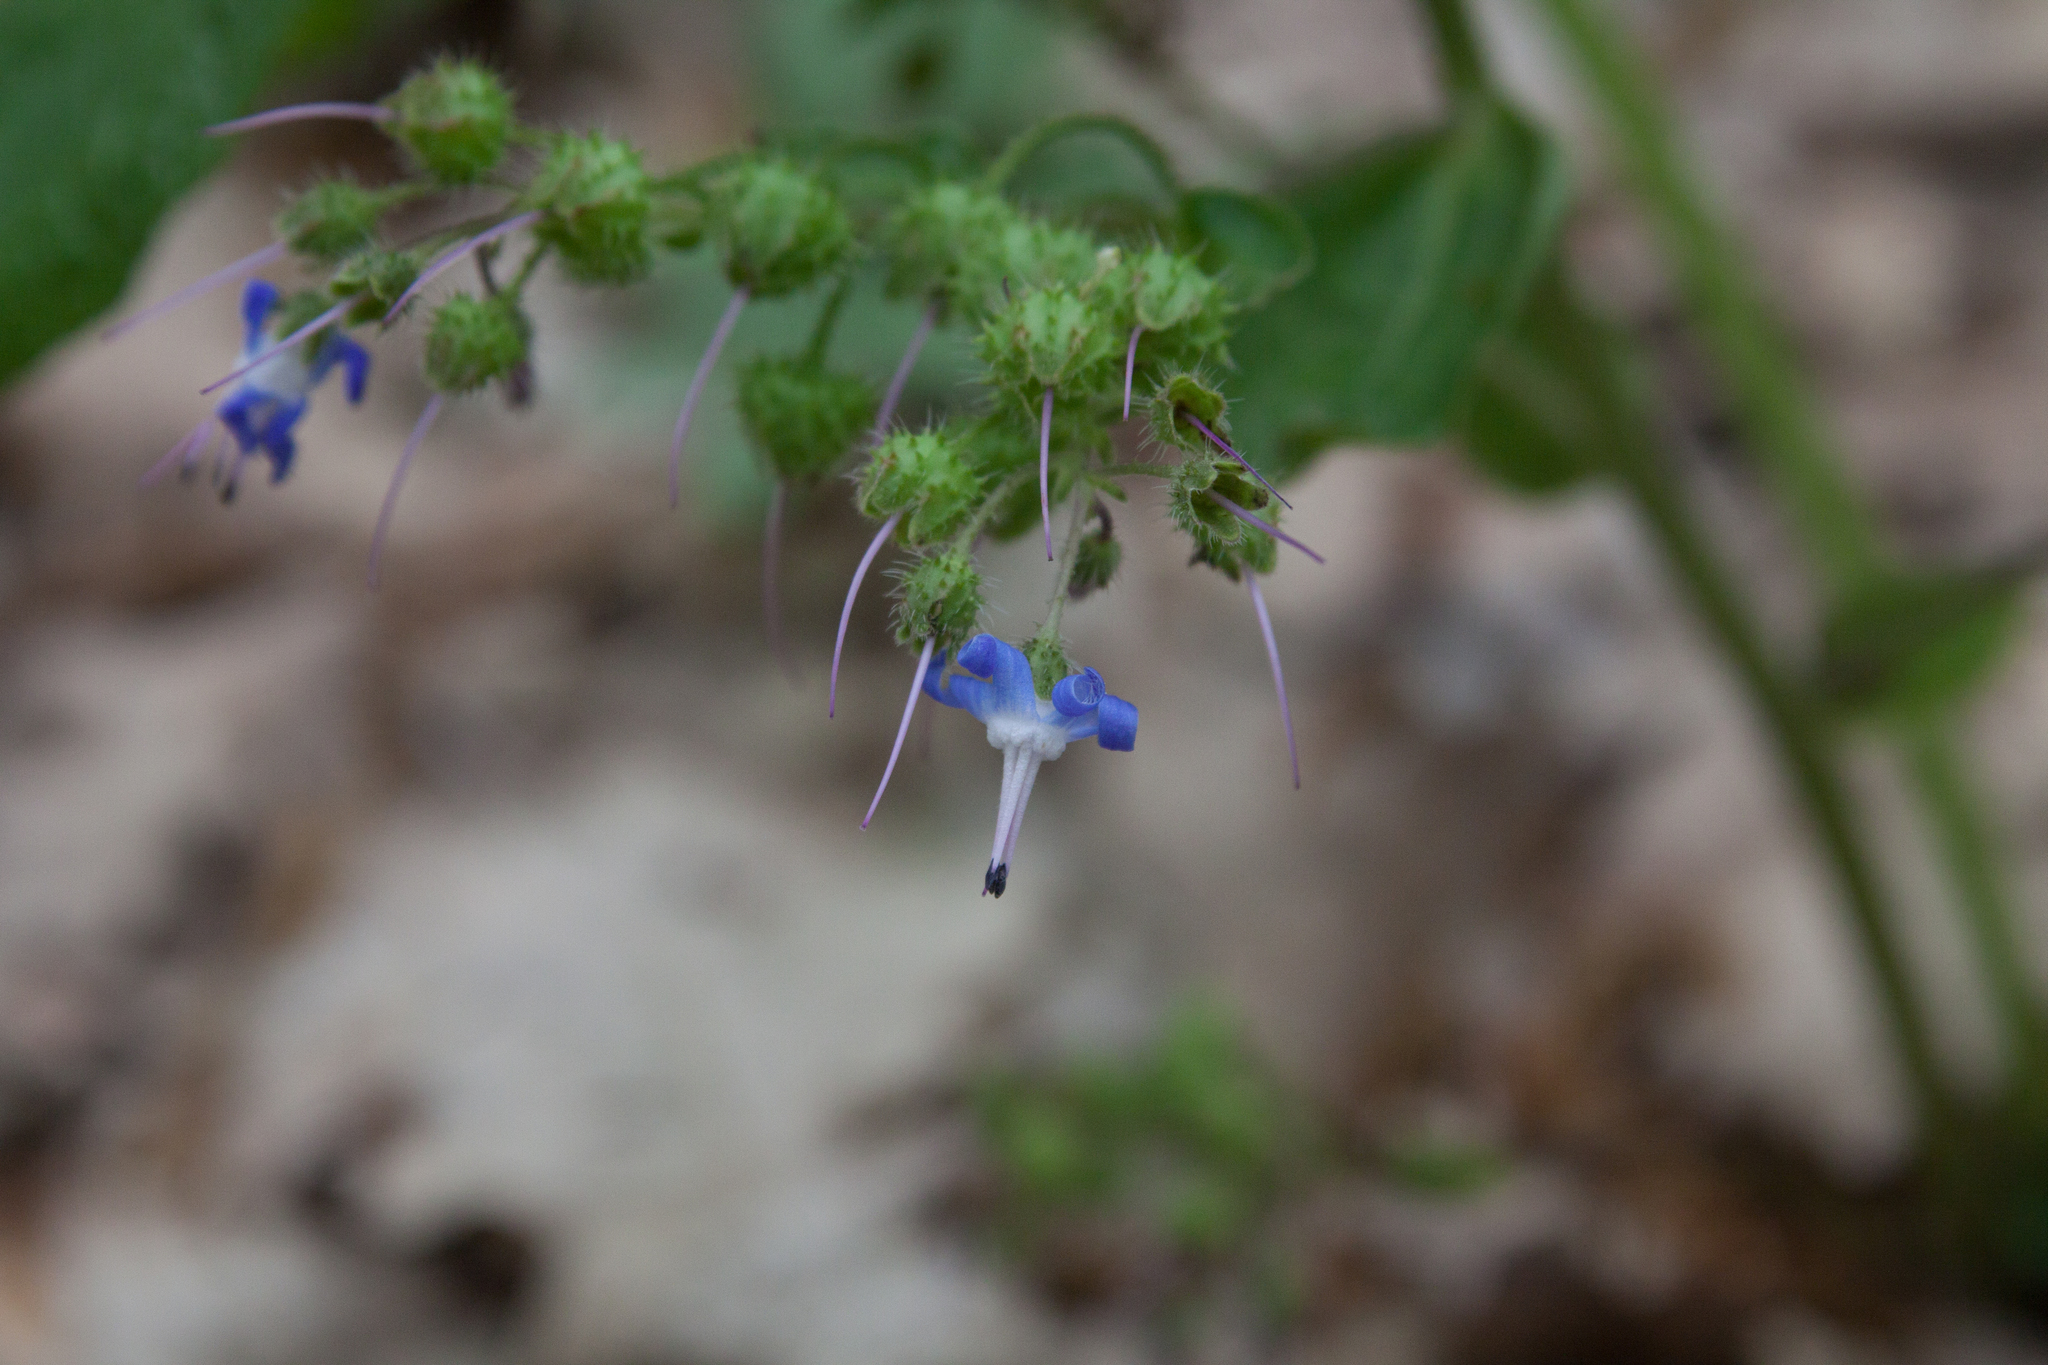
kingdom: Plantae
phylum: Tracheophyta
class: Magnoliopsida
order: Boraginales
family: Boraginaceae
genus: Trachystemon
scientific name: Trachystemon orientale
